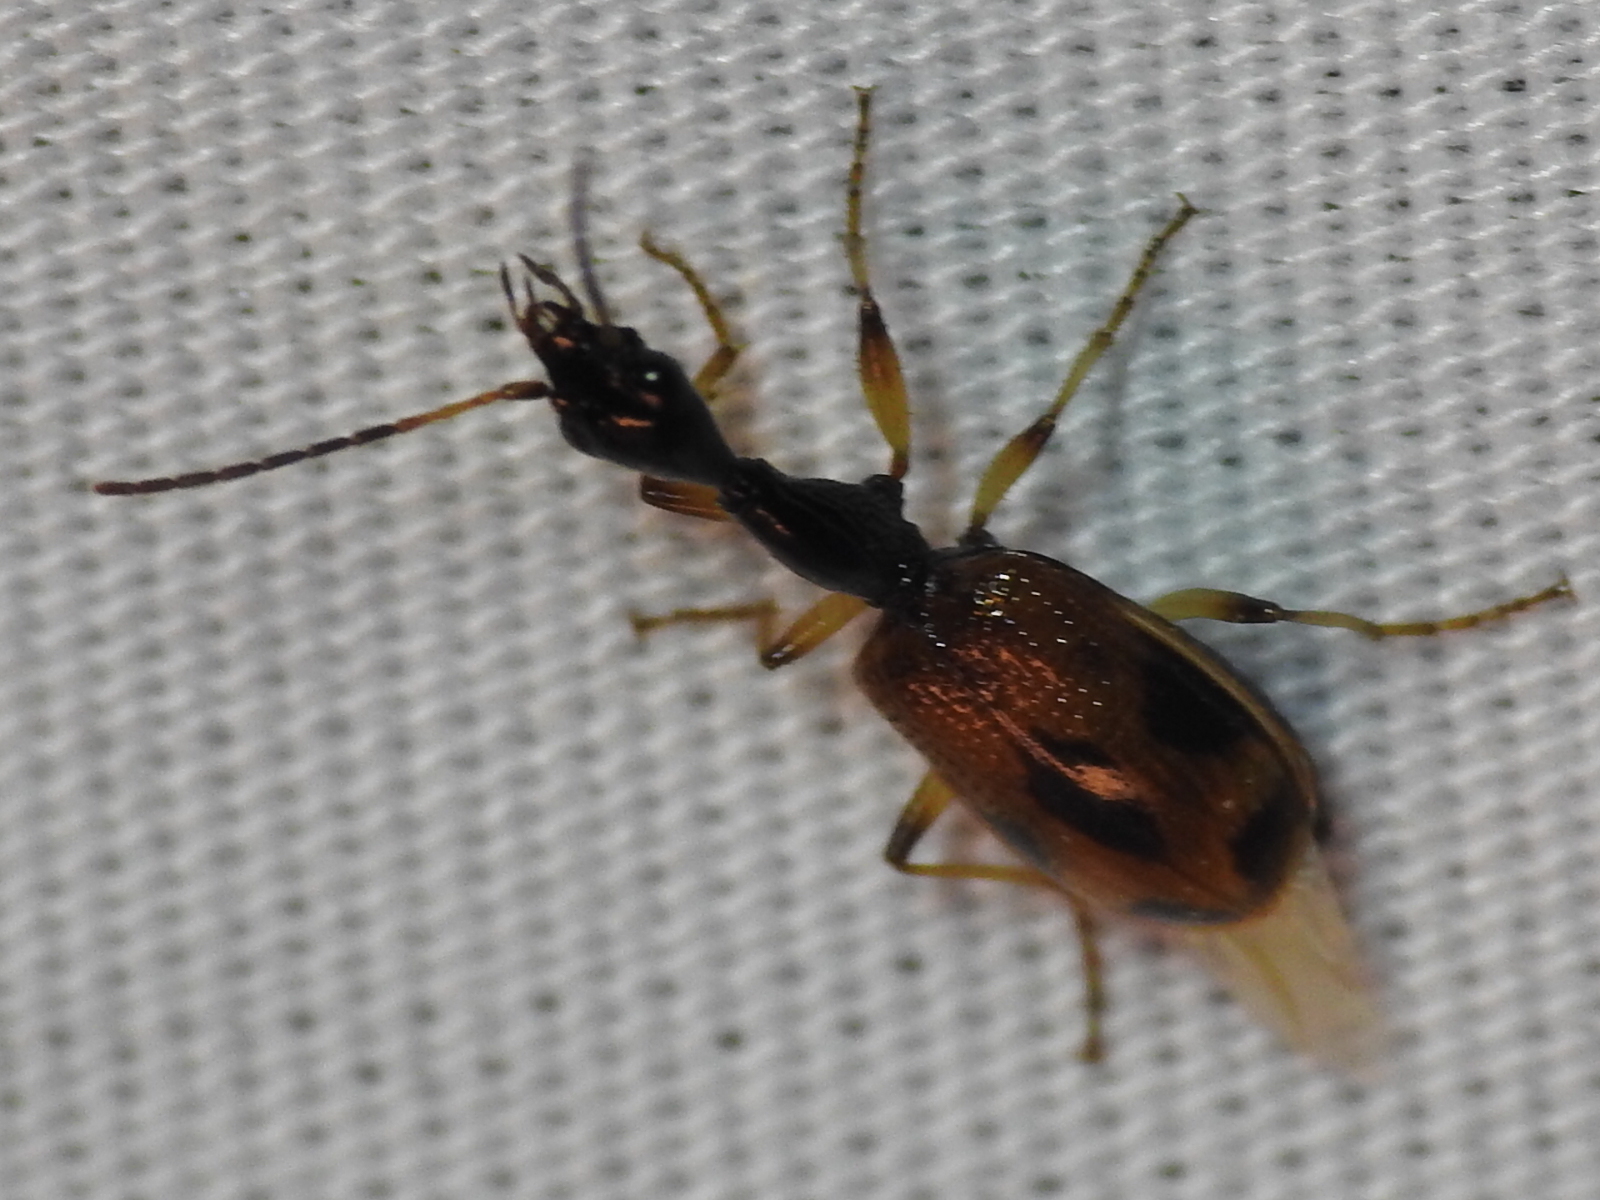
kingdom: Animalia
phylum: Arthropoda
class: Insecta
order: Coleoptera
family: Carabidae
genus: Colliuris
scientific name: Colliuris pensylvanica
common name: Long-necked ground beetle
